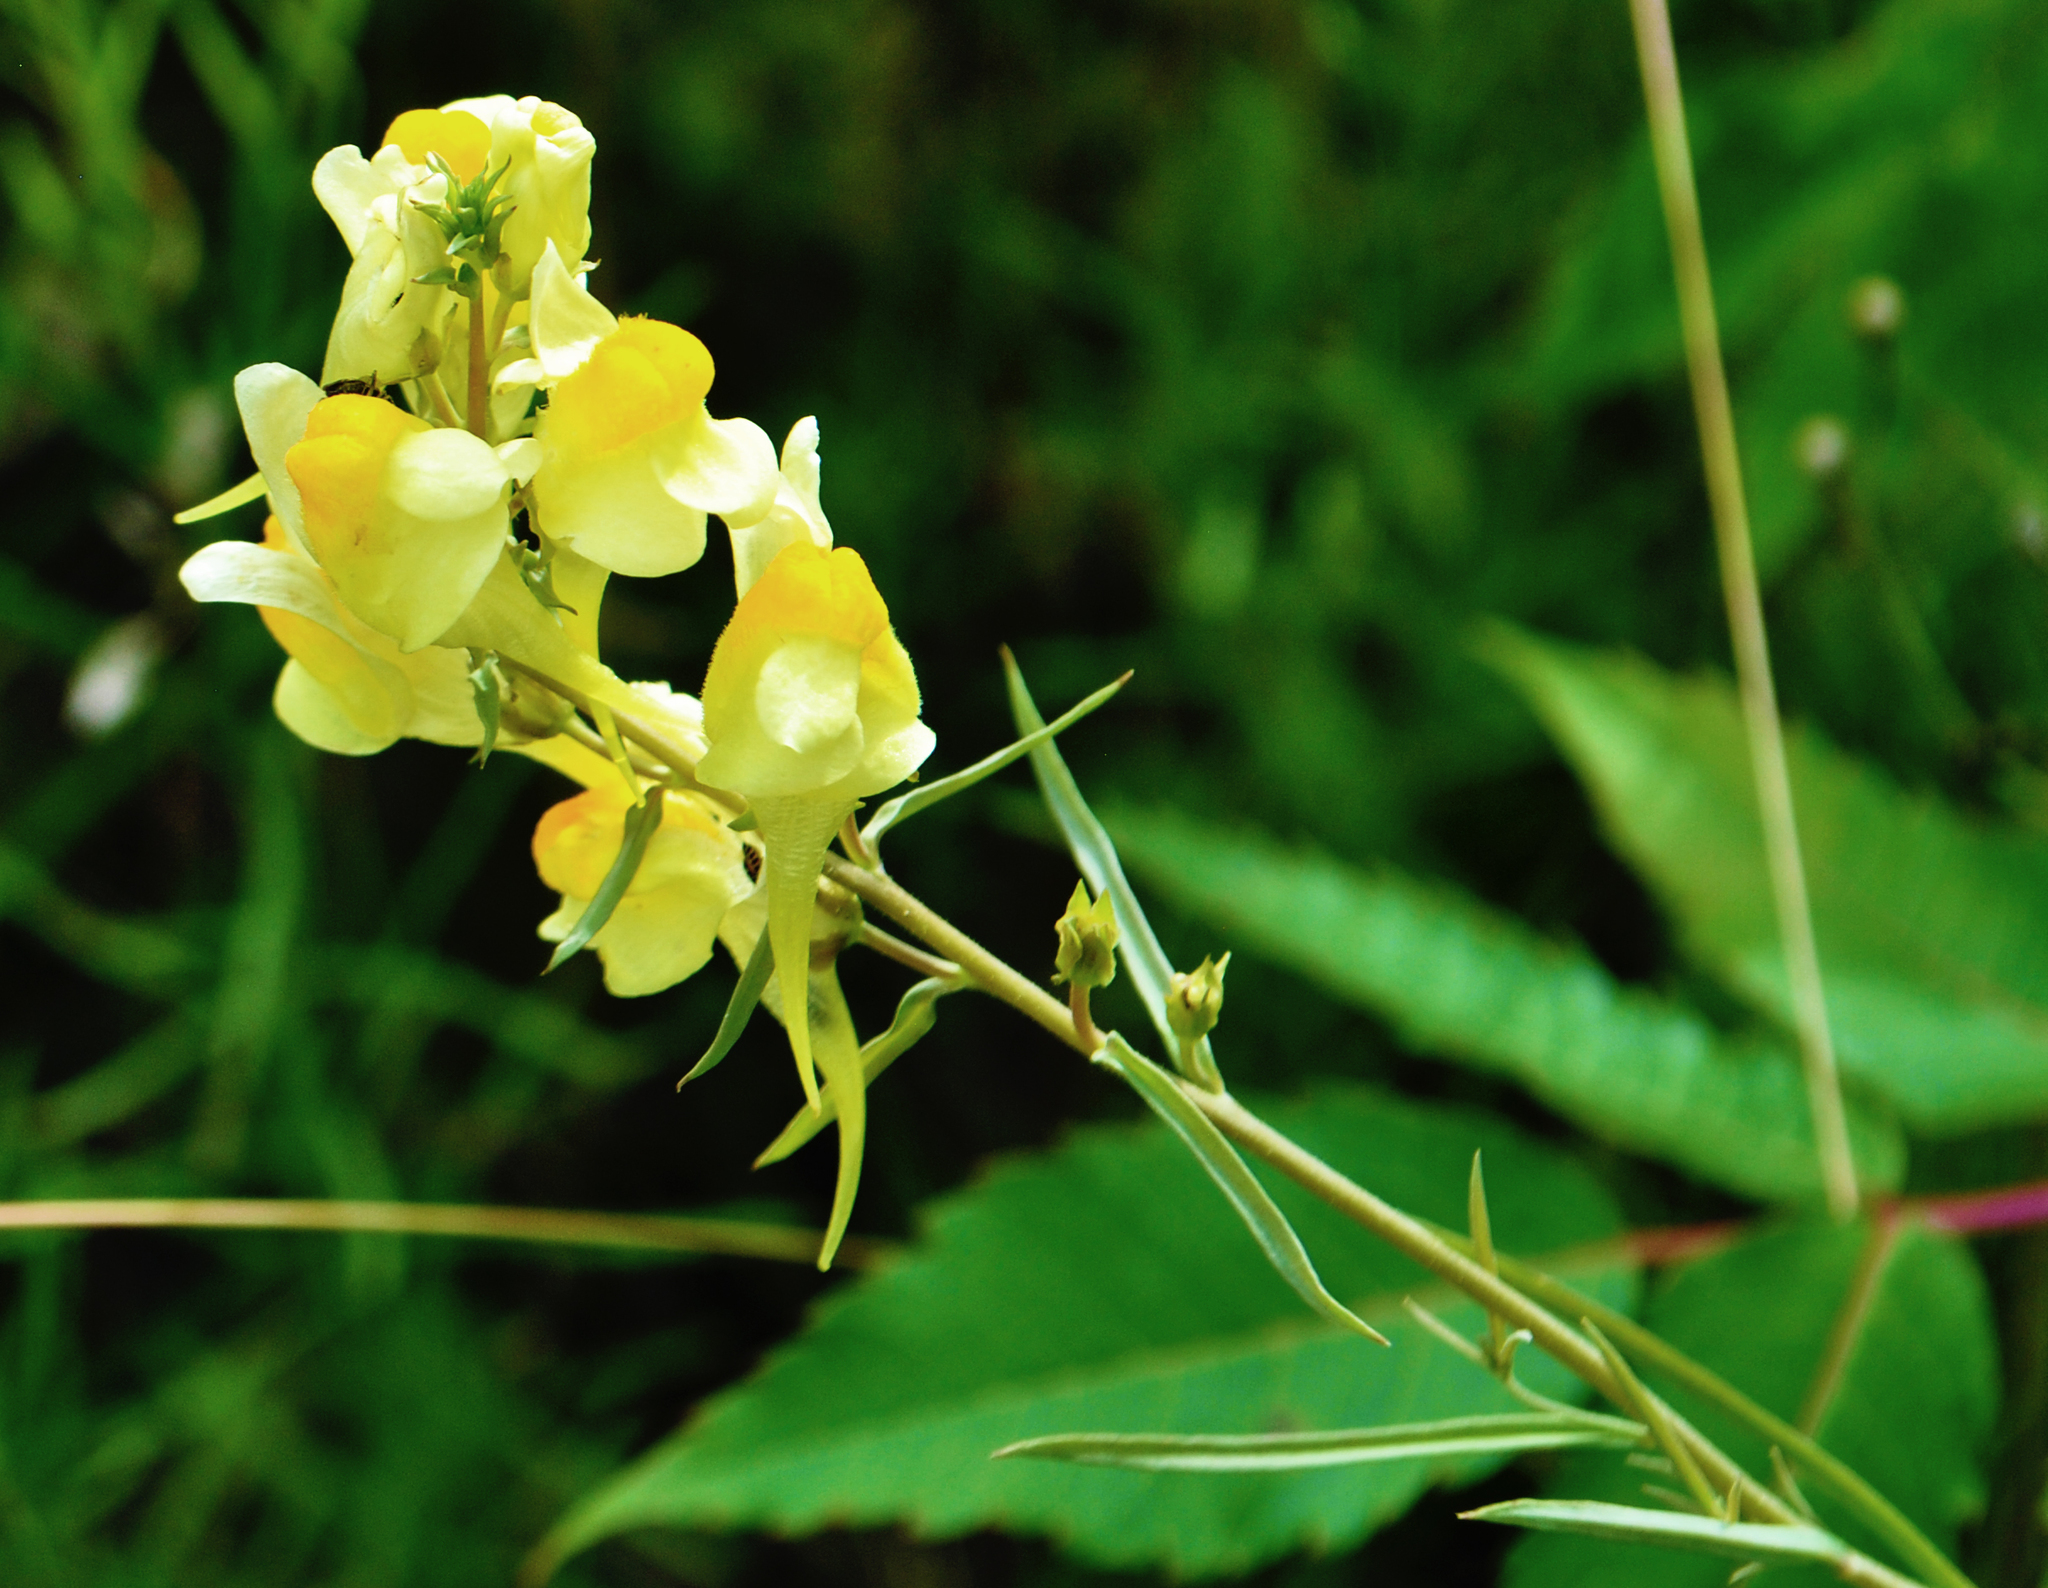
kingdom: Plantae
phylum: Tracheophyta
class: Magnoliopsida
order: Lamiales
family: Plantaginaceae
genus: Linaria
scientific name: Linaria vulgaris
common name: Butter and eggs
